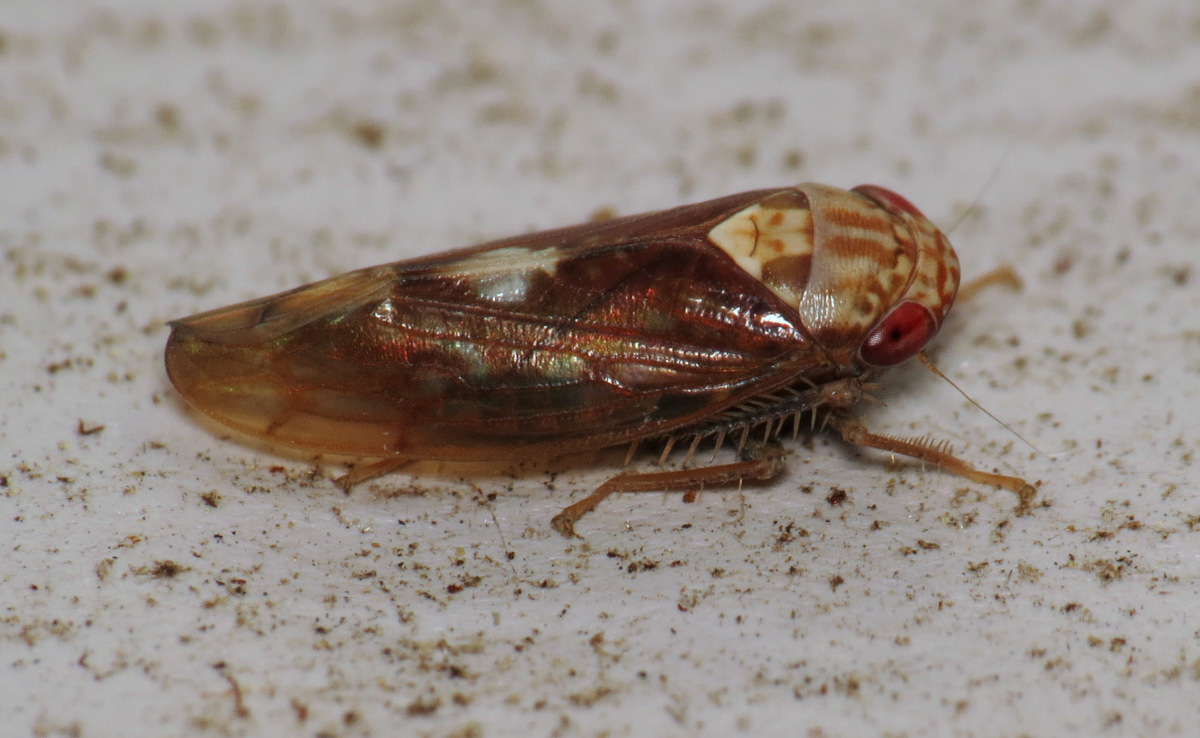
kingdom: Animalia
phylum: Arthropoda
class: Insecta
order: Hemiptera
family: Cicadellidae
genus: Eutettix
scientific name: Eutettix borealis
